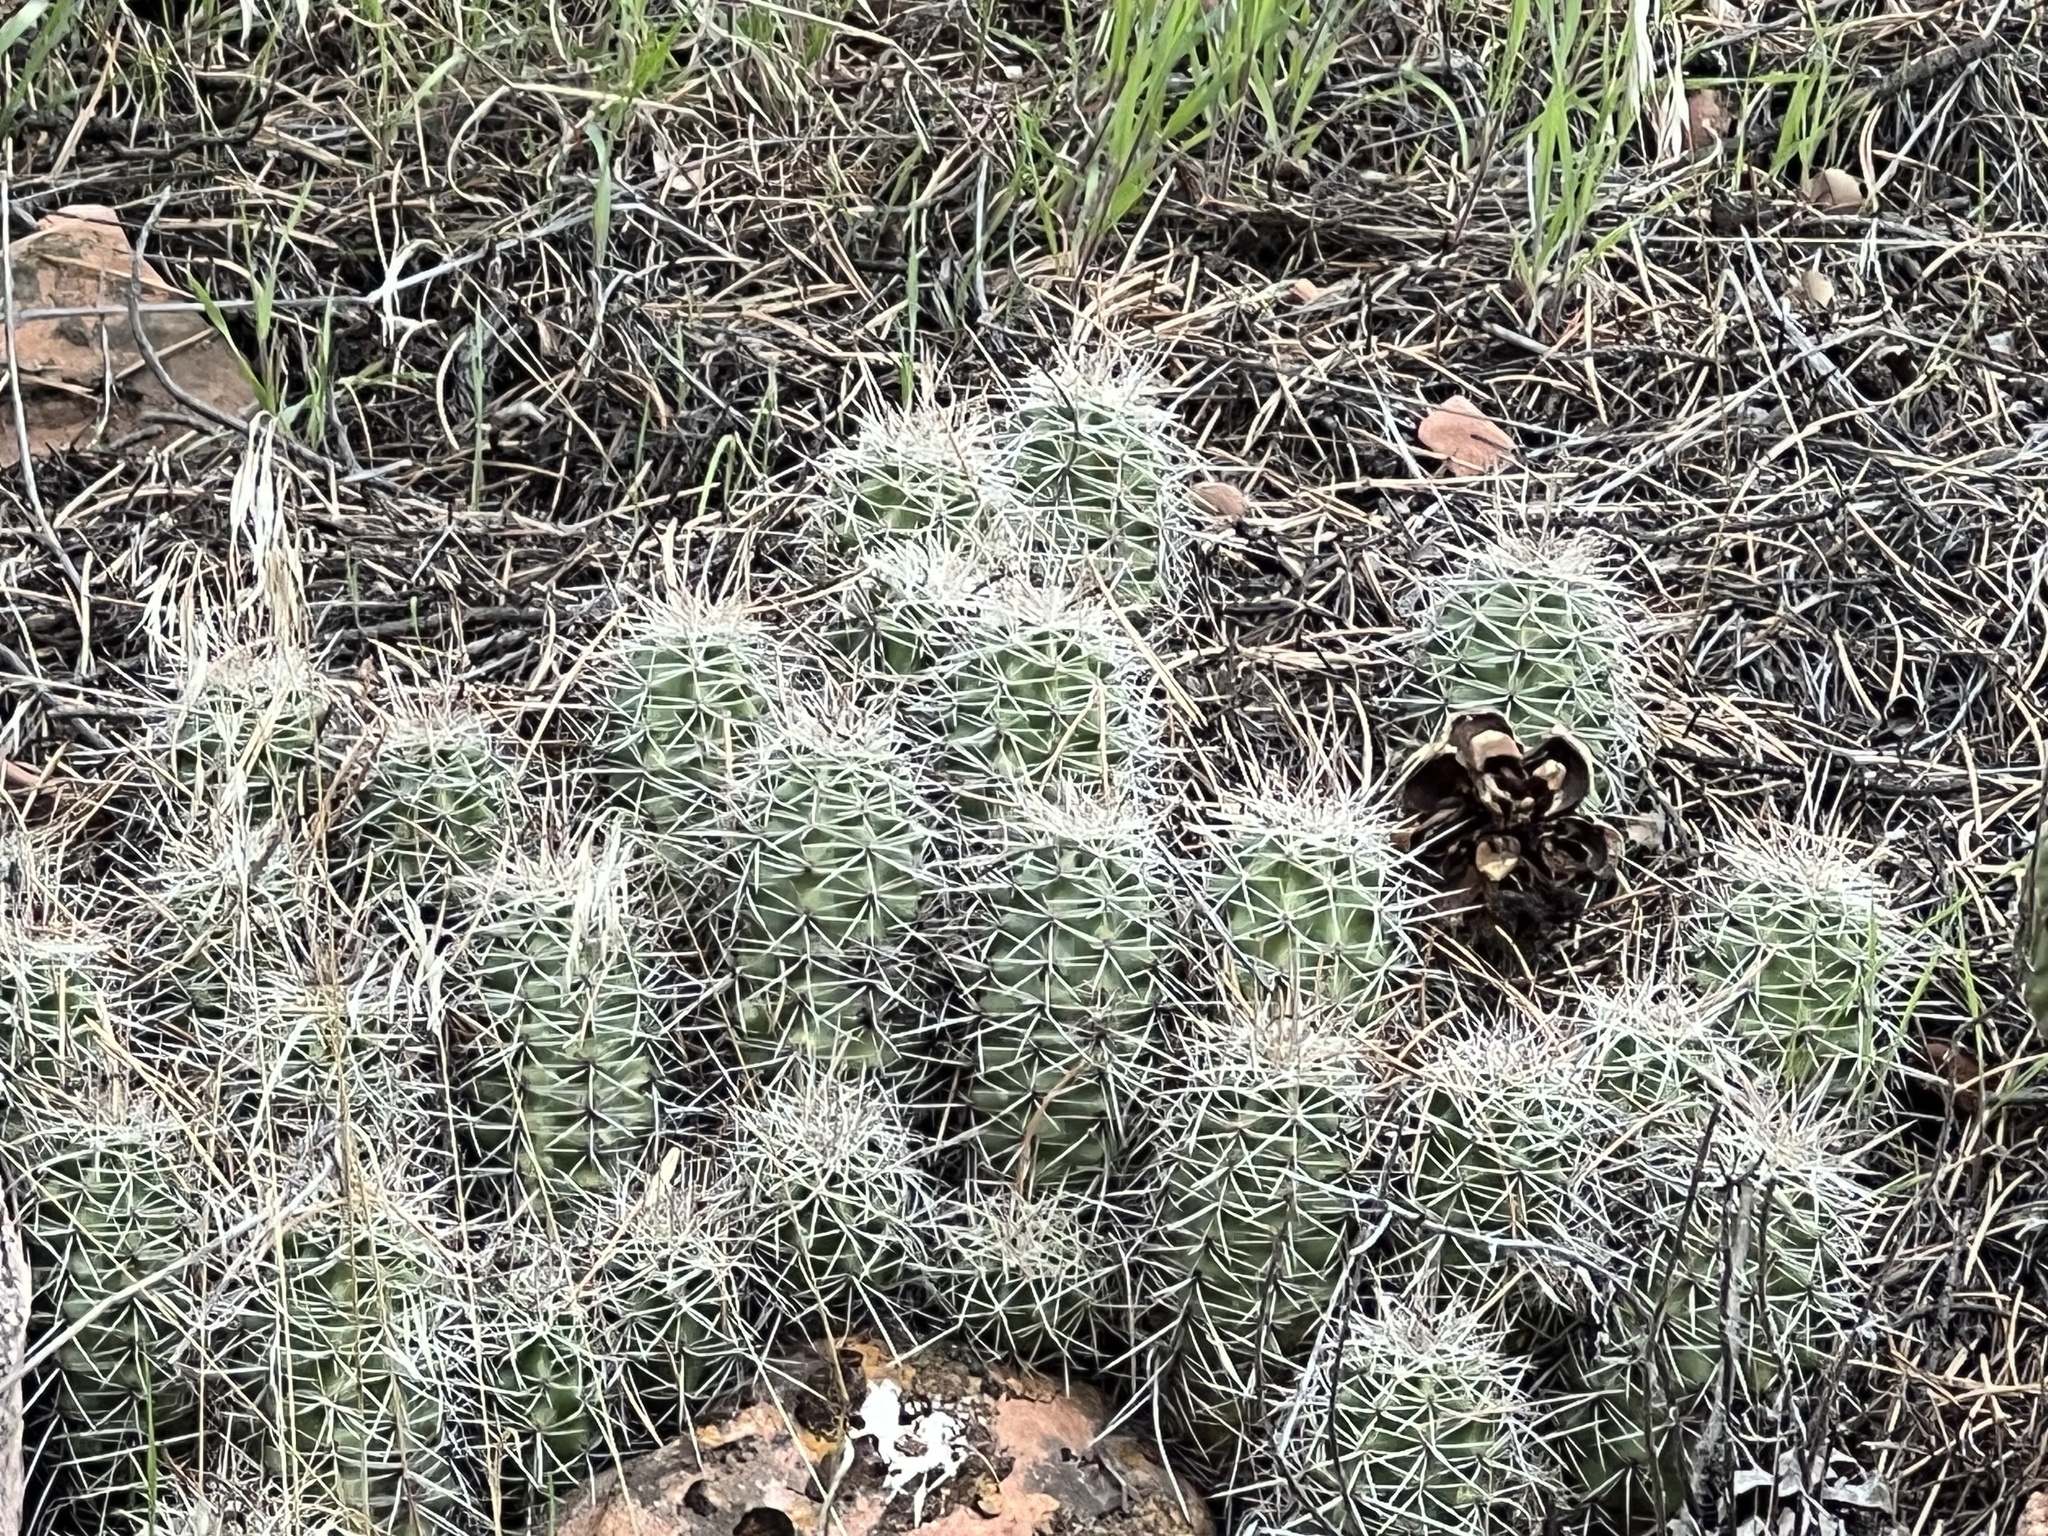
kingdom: Plantae
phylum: Tracheophyta
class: Magnoliopsida
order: Caryophyllales
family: Cactaceae
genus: Echinocereus
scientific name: Echinocereus triglochidiatus
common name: Claretcup hedgehog
